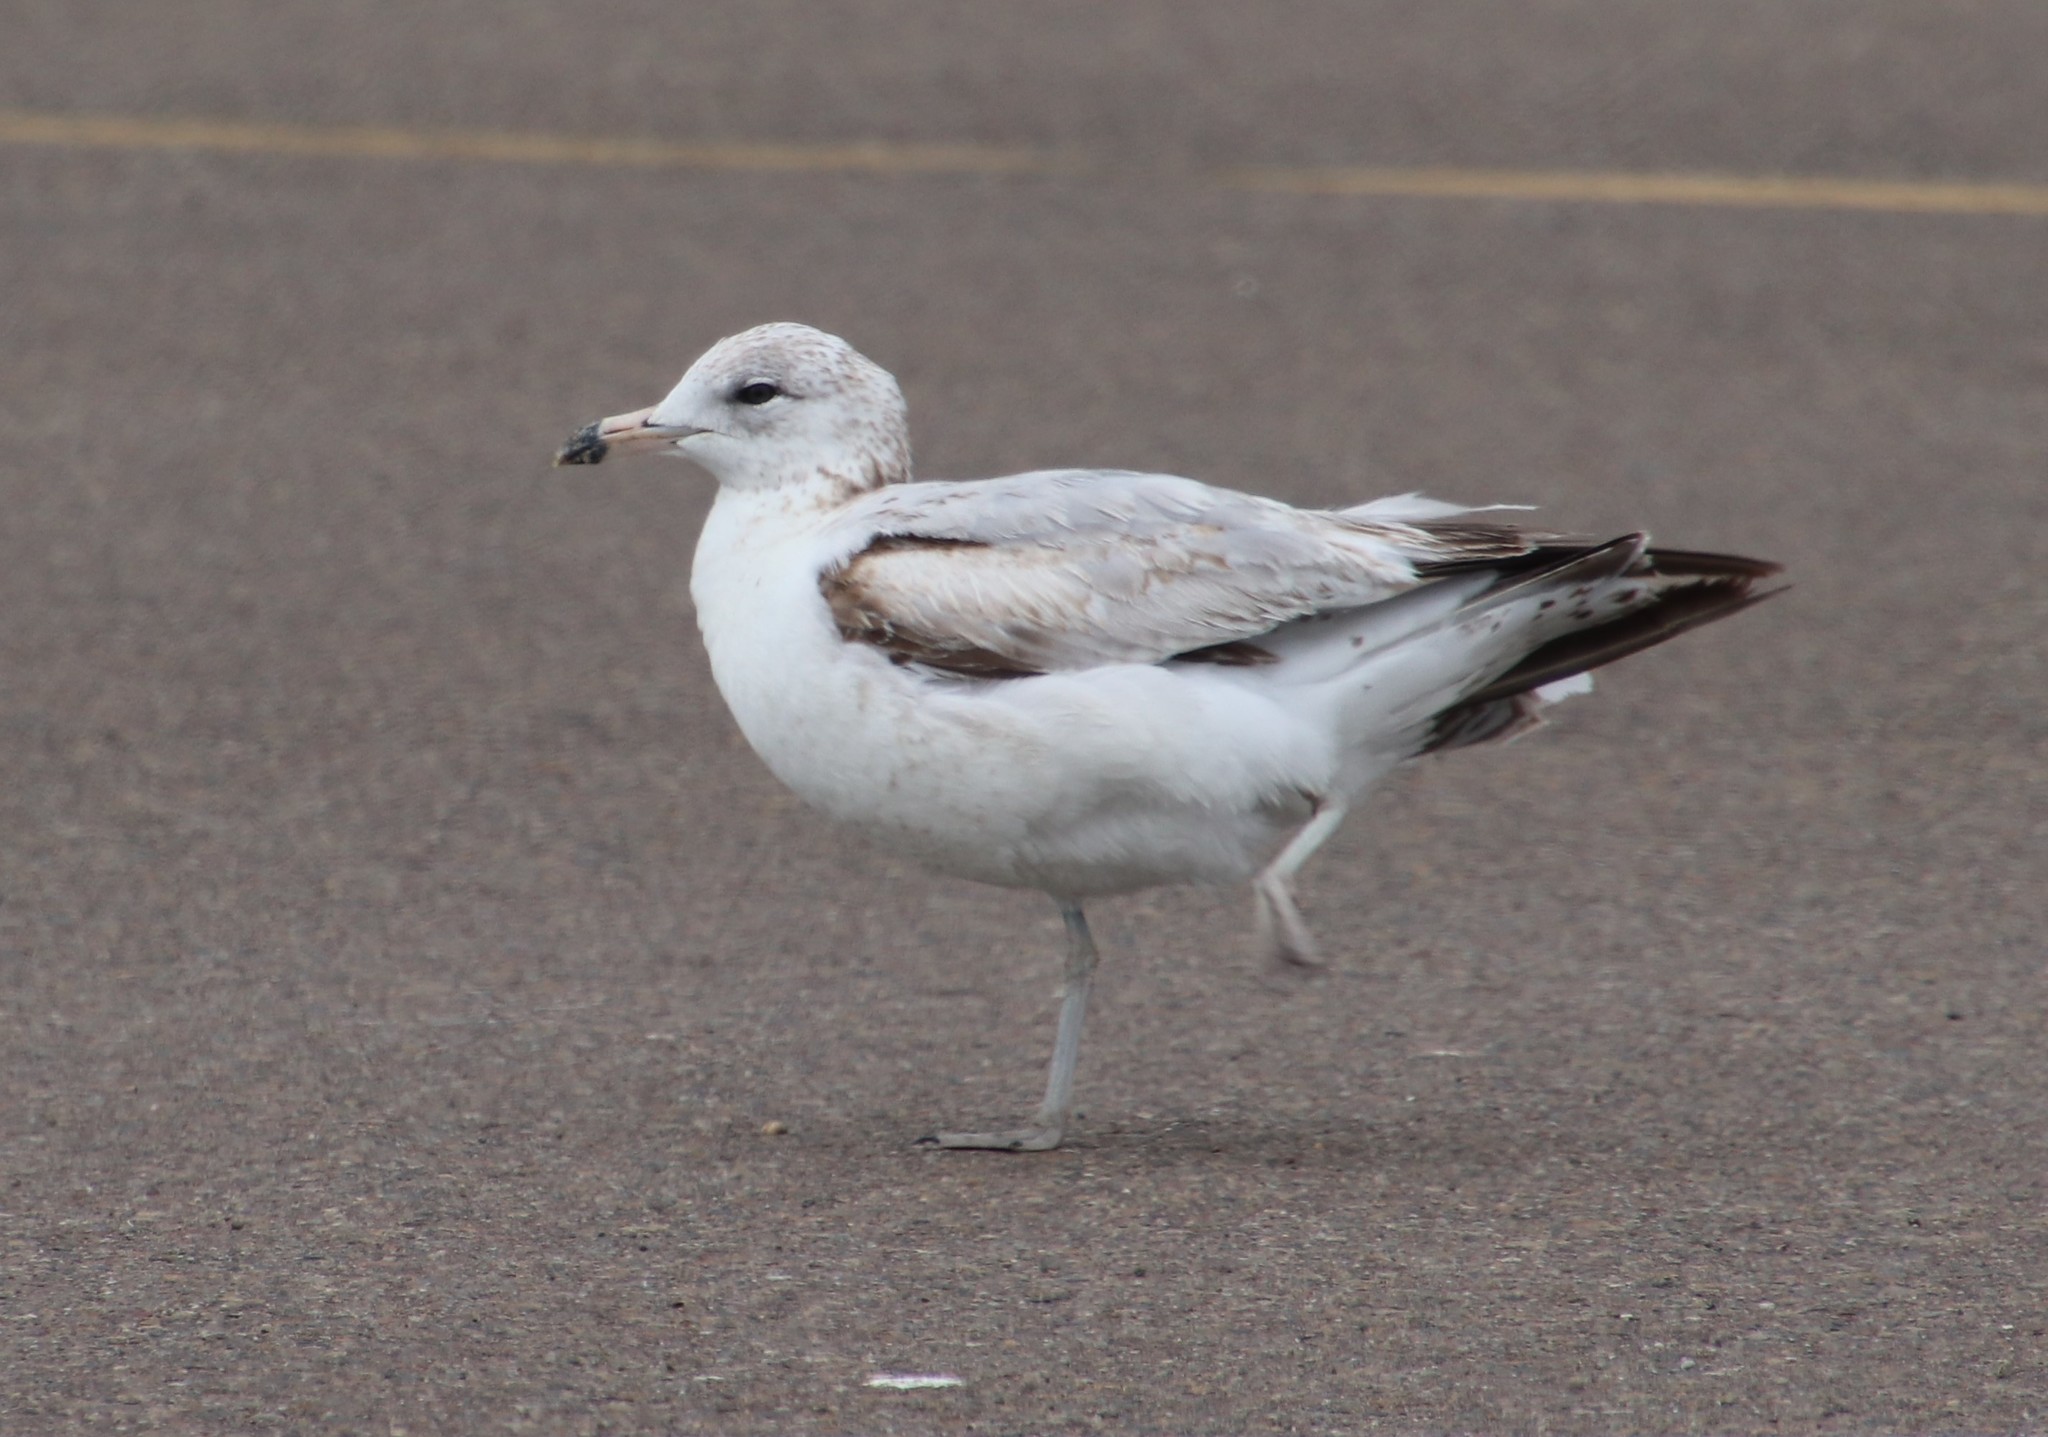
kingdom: Animalia
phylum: Chordata
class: Aves
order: Charadriiformes
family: Laridae
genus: Larus
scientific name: Larus delawarensis
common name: Ring-billed gull
